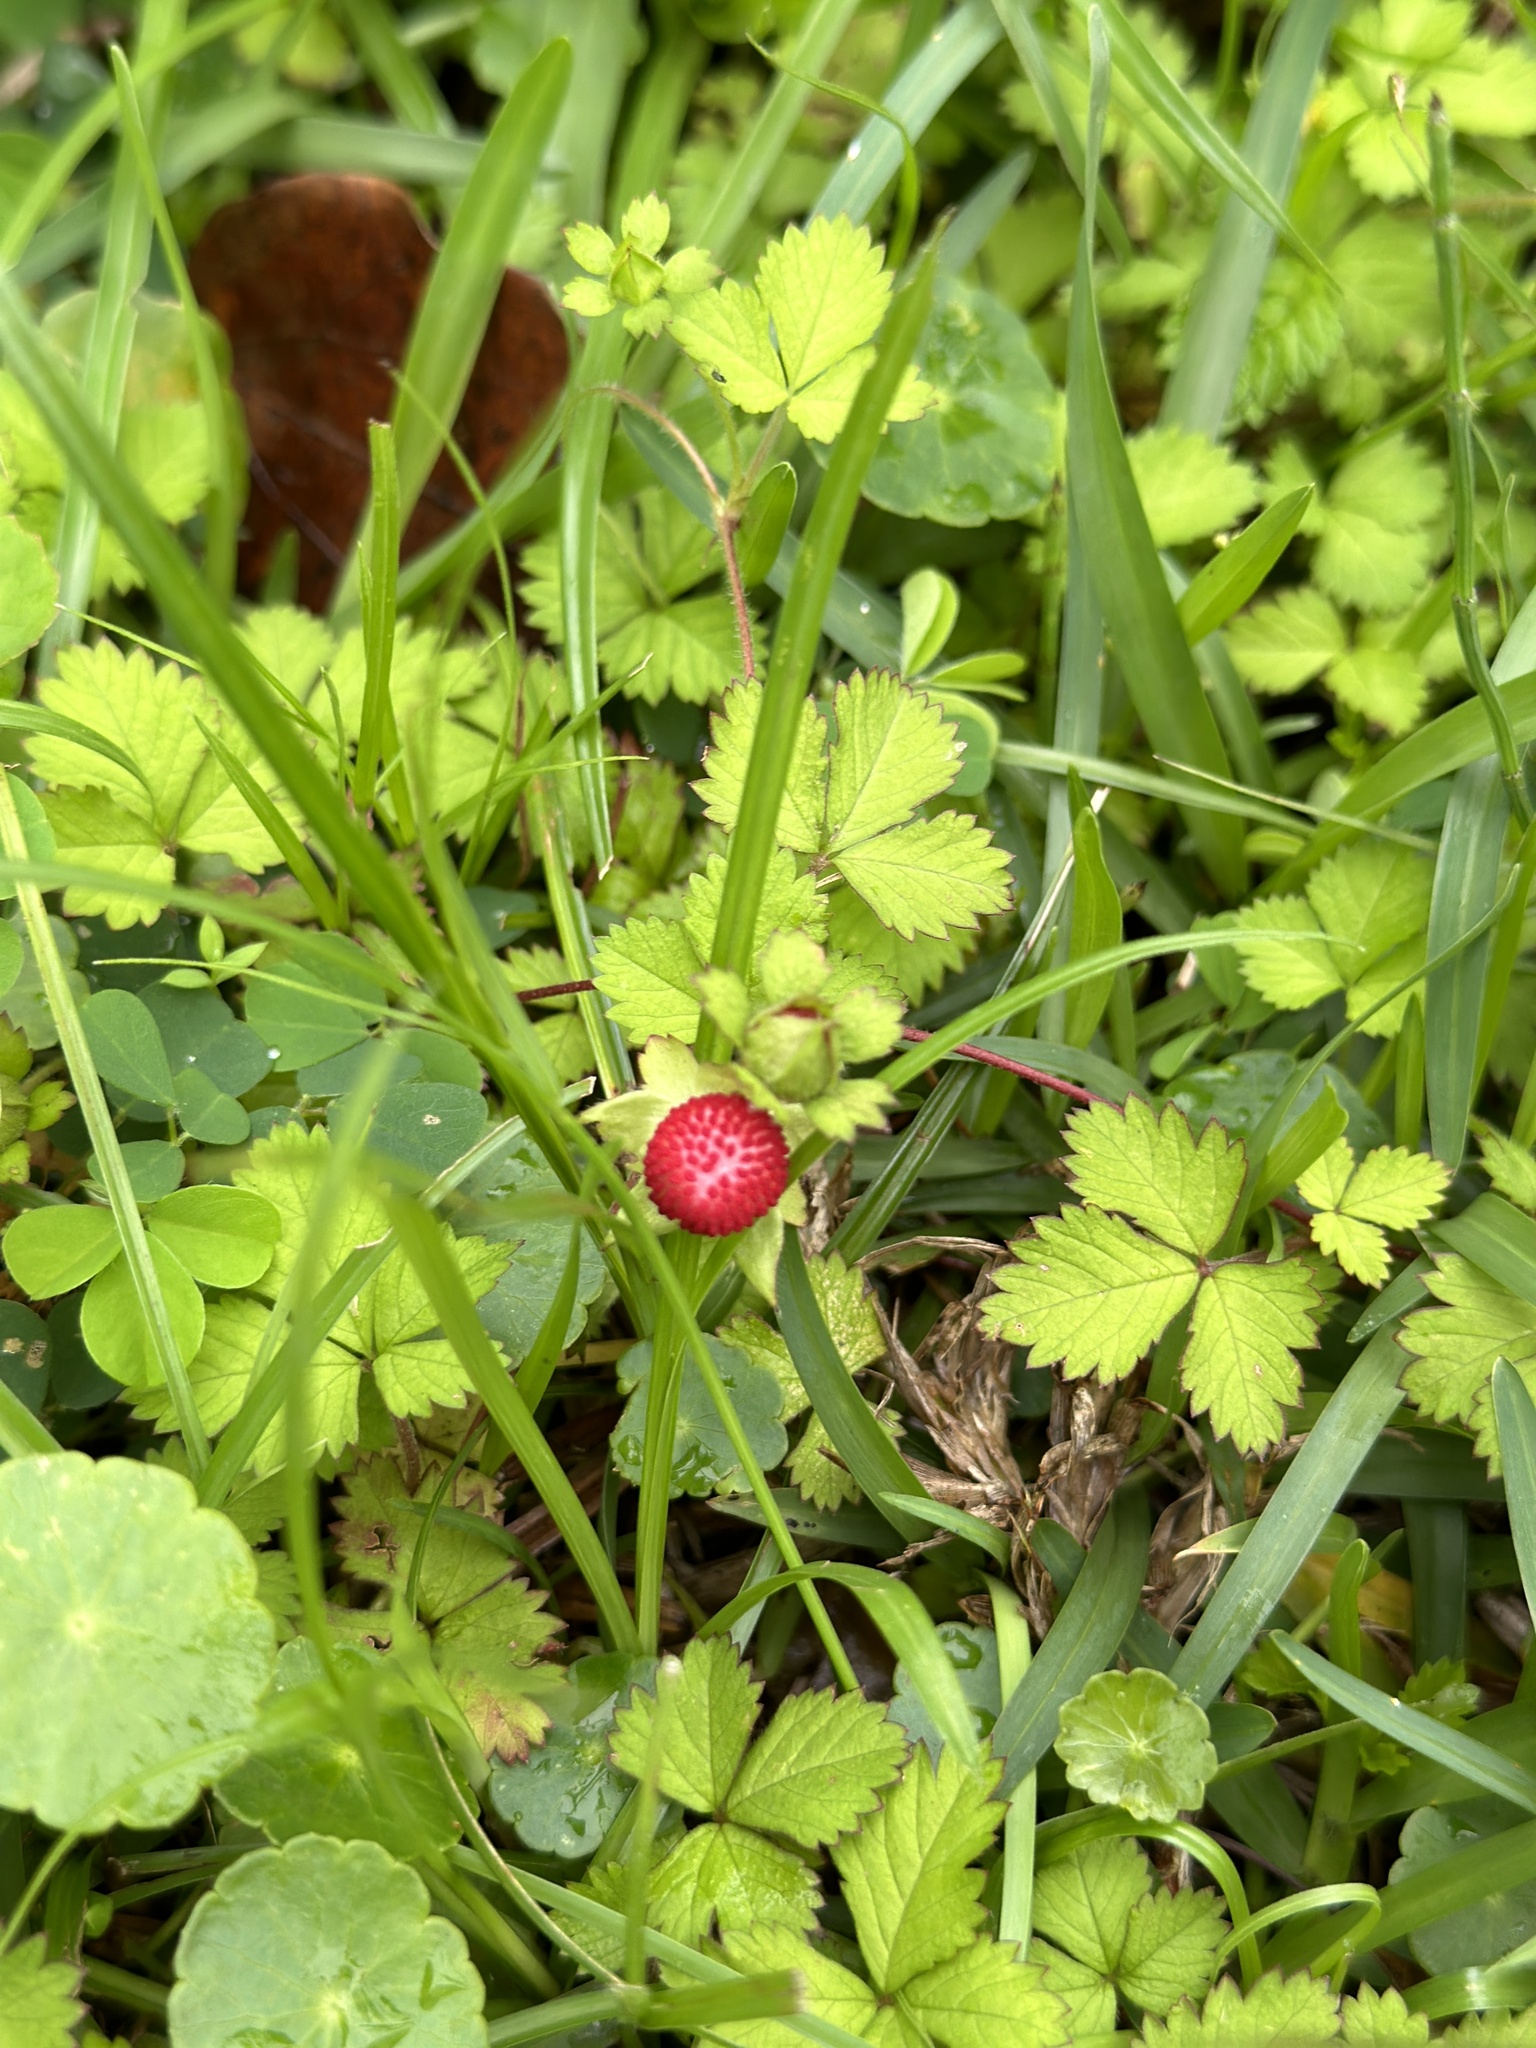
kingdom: Plantae
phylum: Tracheophyta
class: Magnoliopsida
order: Rosales
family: Rosaceae
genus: Potentilla
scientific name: Potentilla wallichiana
